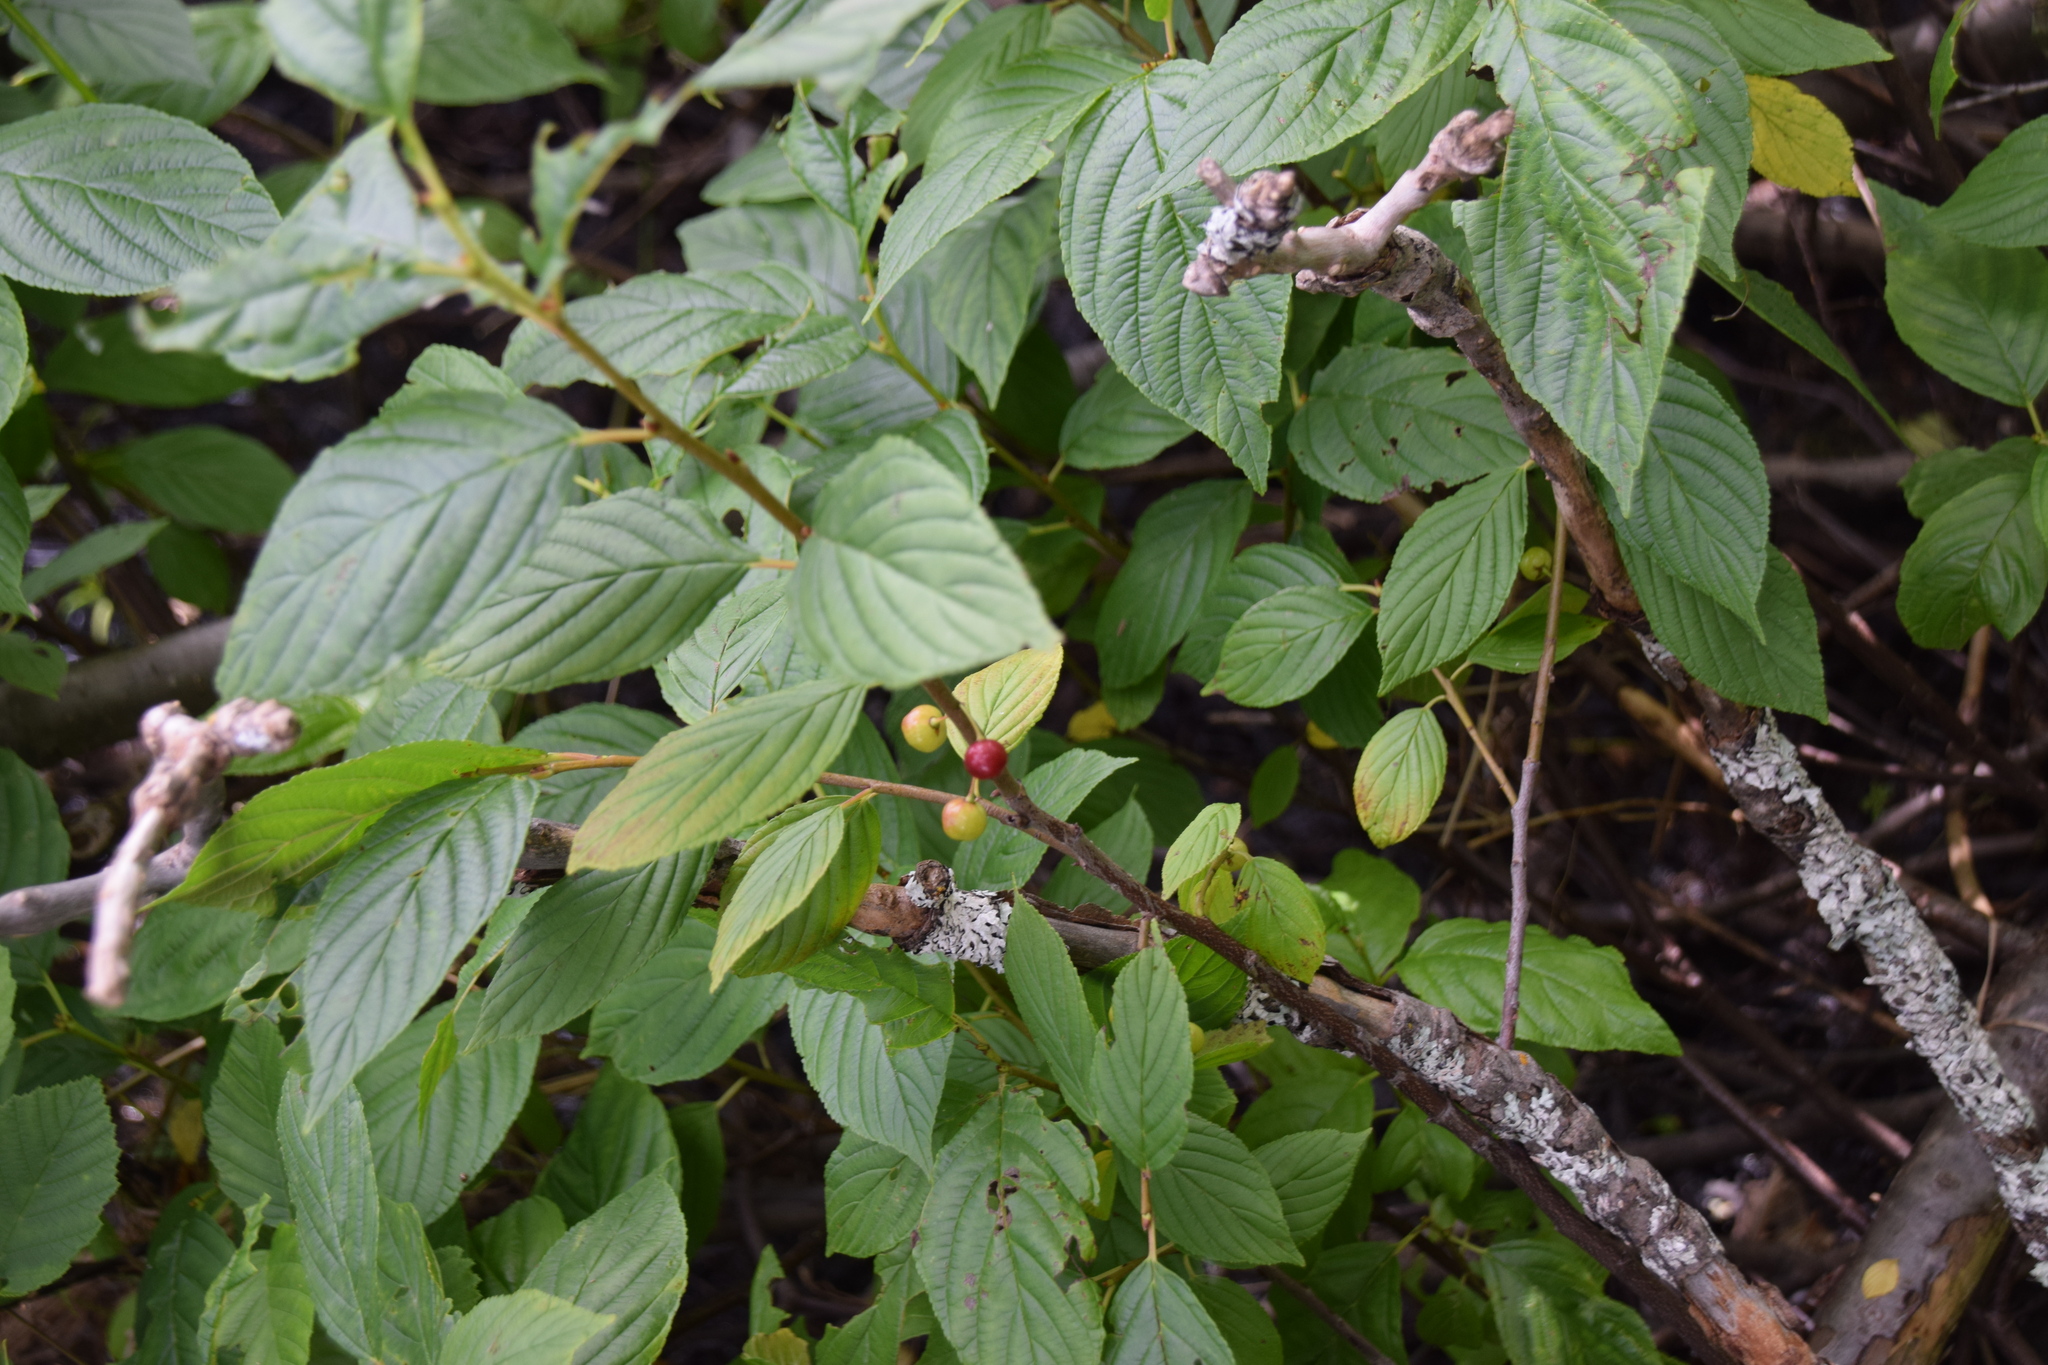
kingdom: Plantae
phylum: Tracheophyta
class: Magnoliopsida
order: Rosales
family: Rhamnaceae
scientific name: Rhamnaceae
